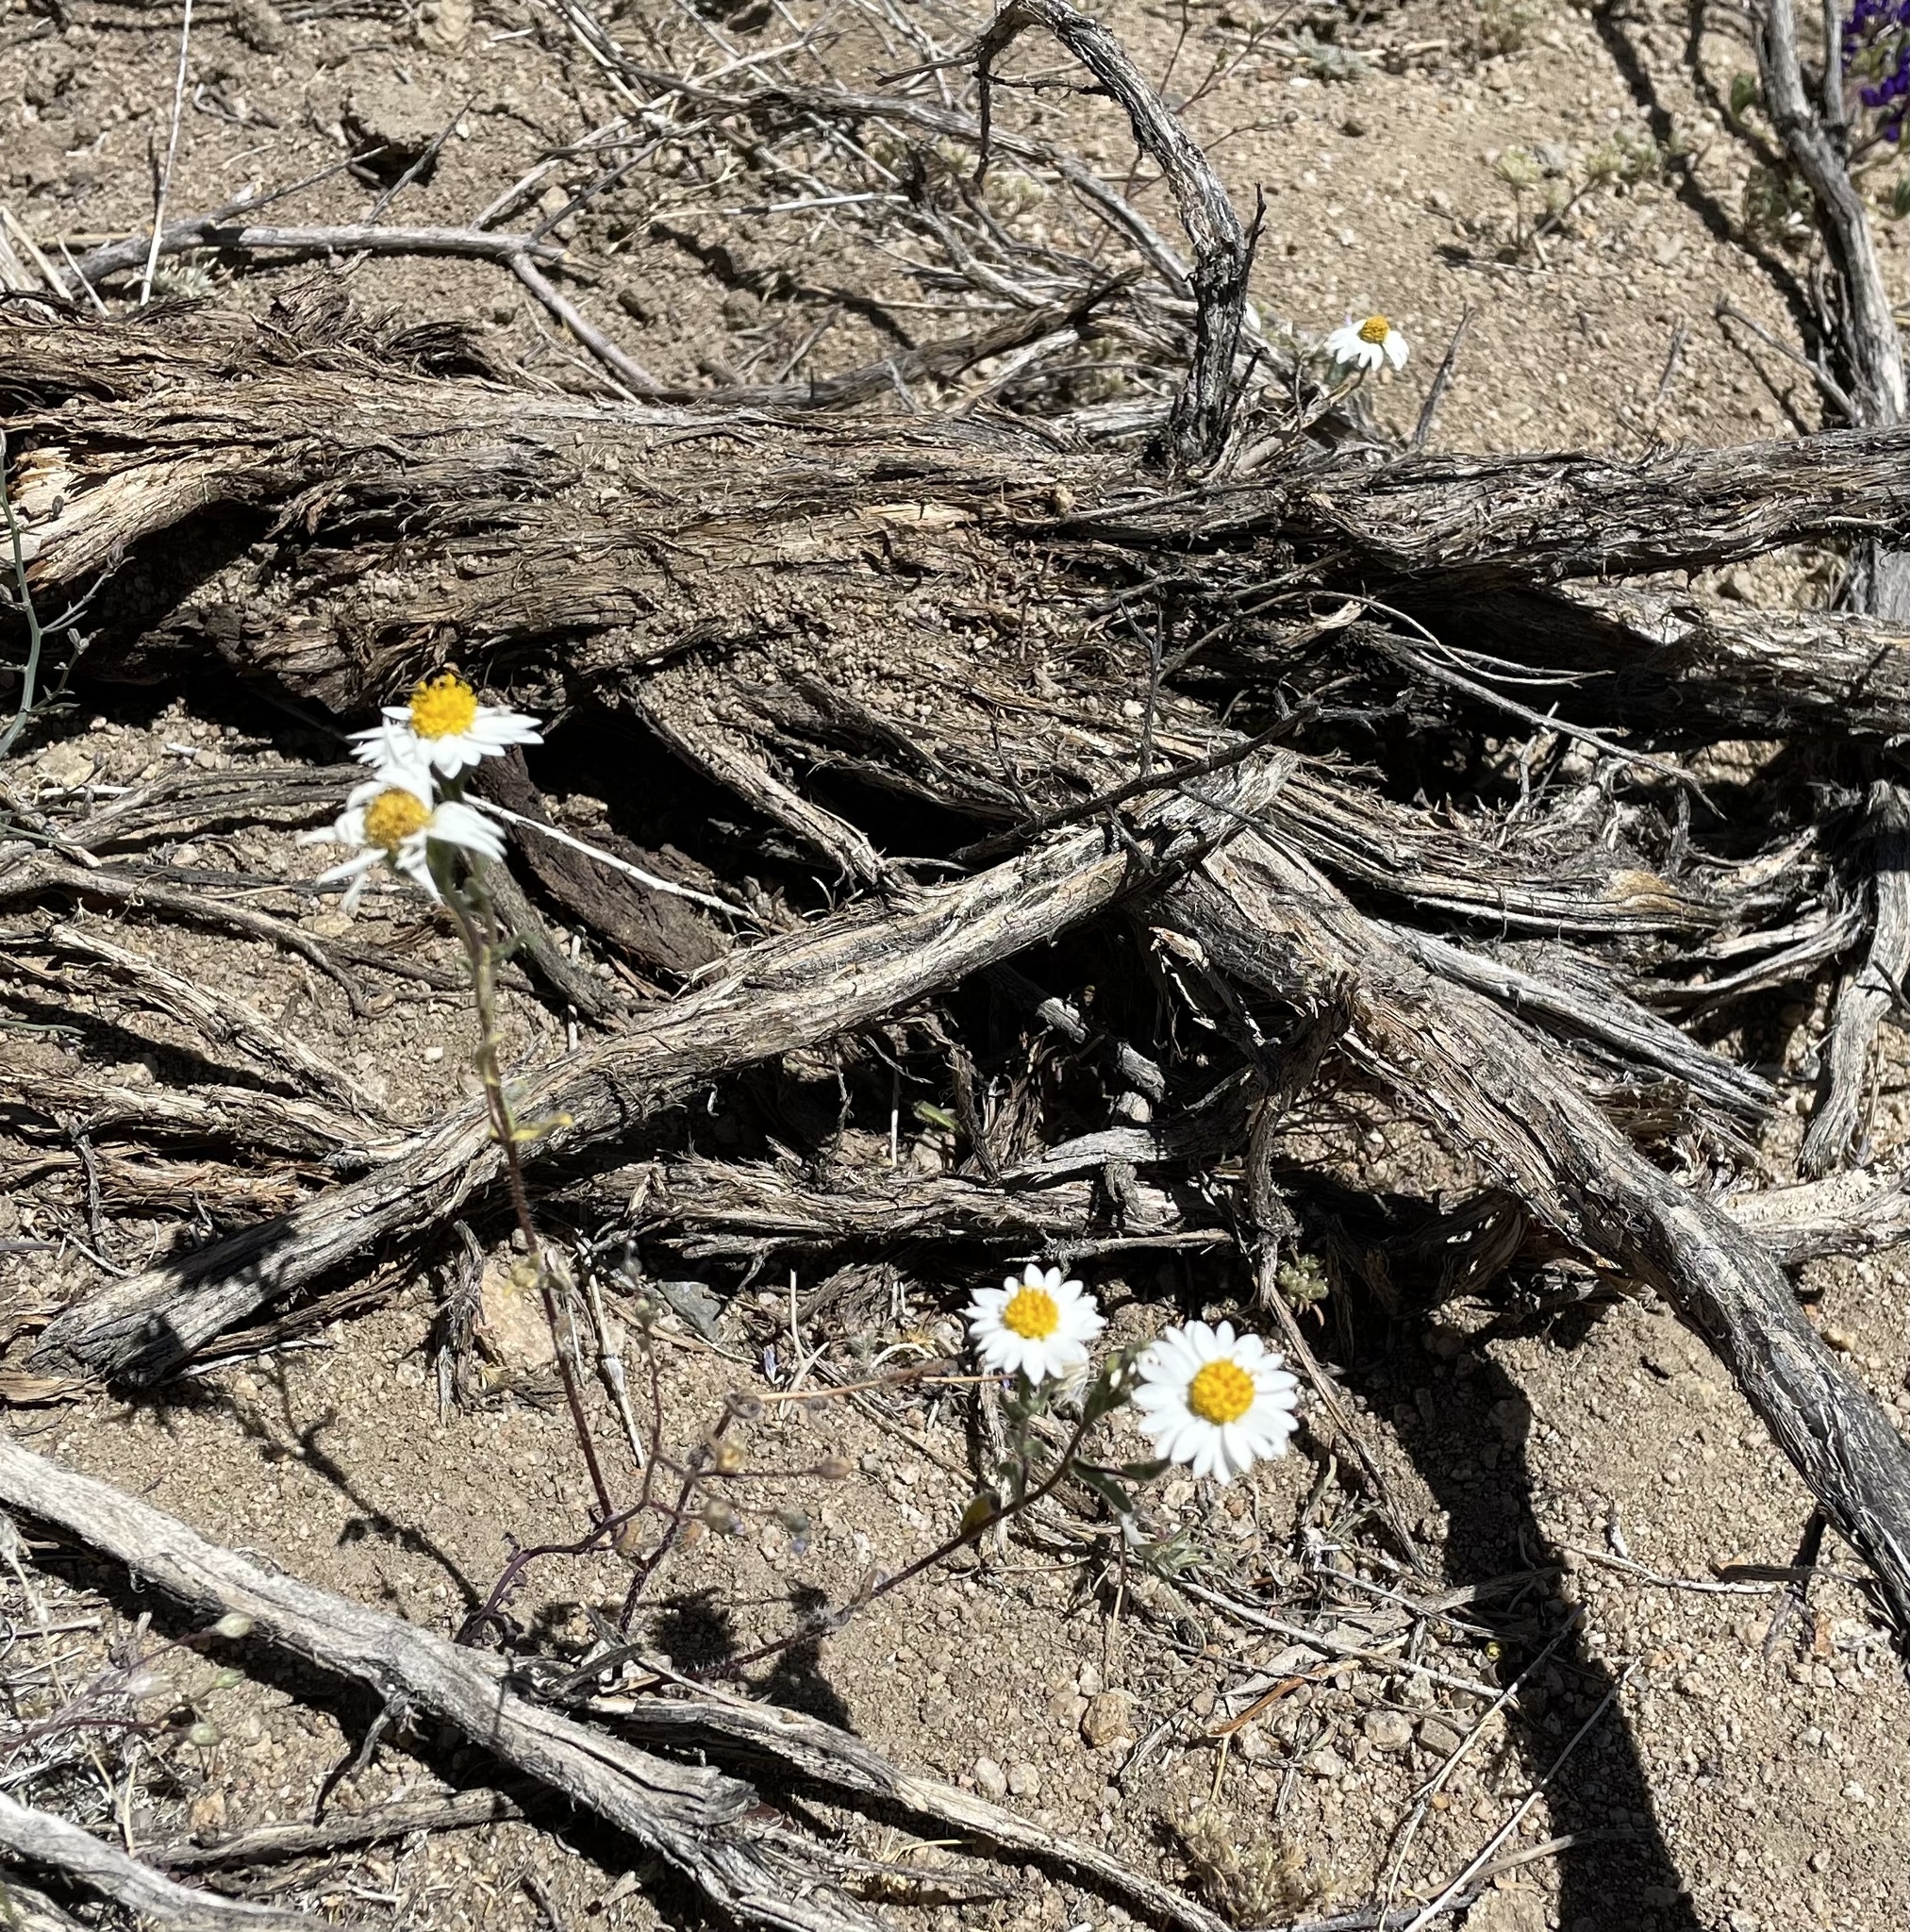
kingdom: Plantae
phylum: Tracheophyta
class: Magnoliopsida
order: Asterales
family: Asteraceae
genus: Layia
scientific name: Layia glandulosa
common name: White layia
